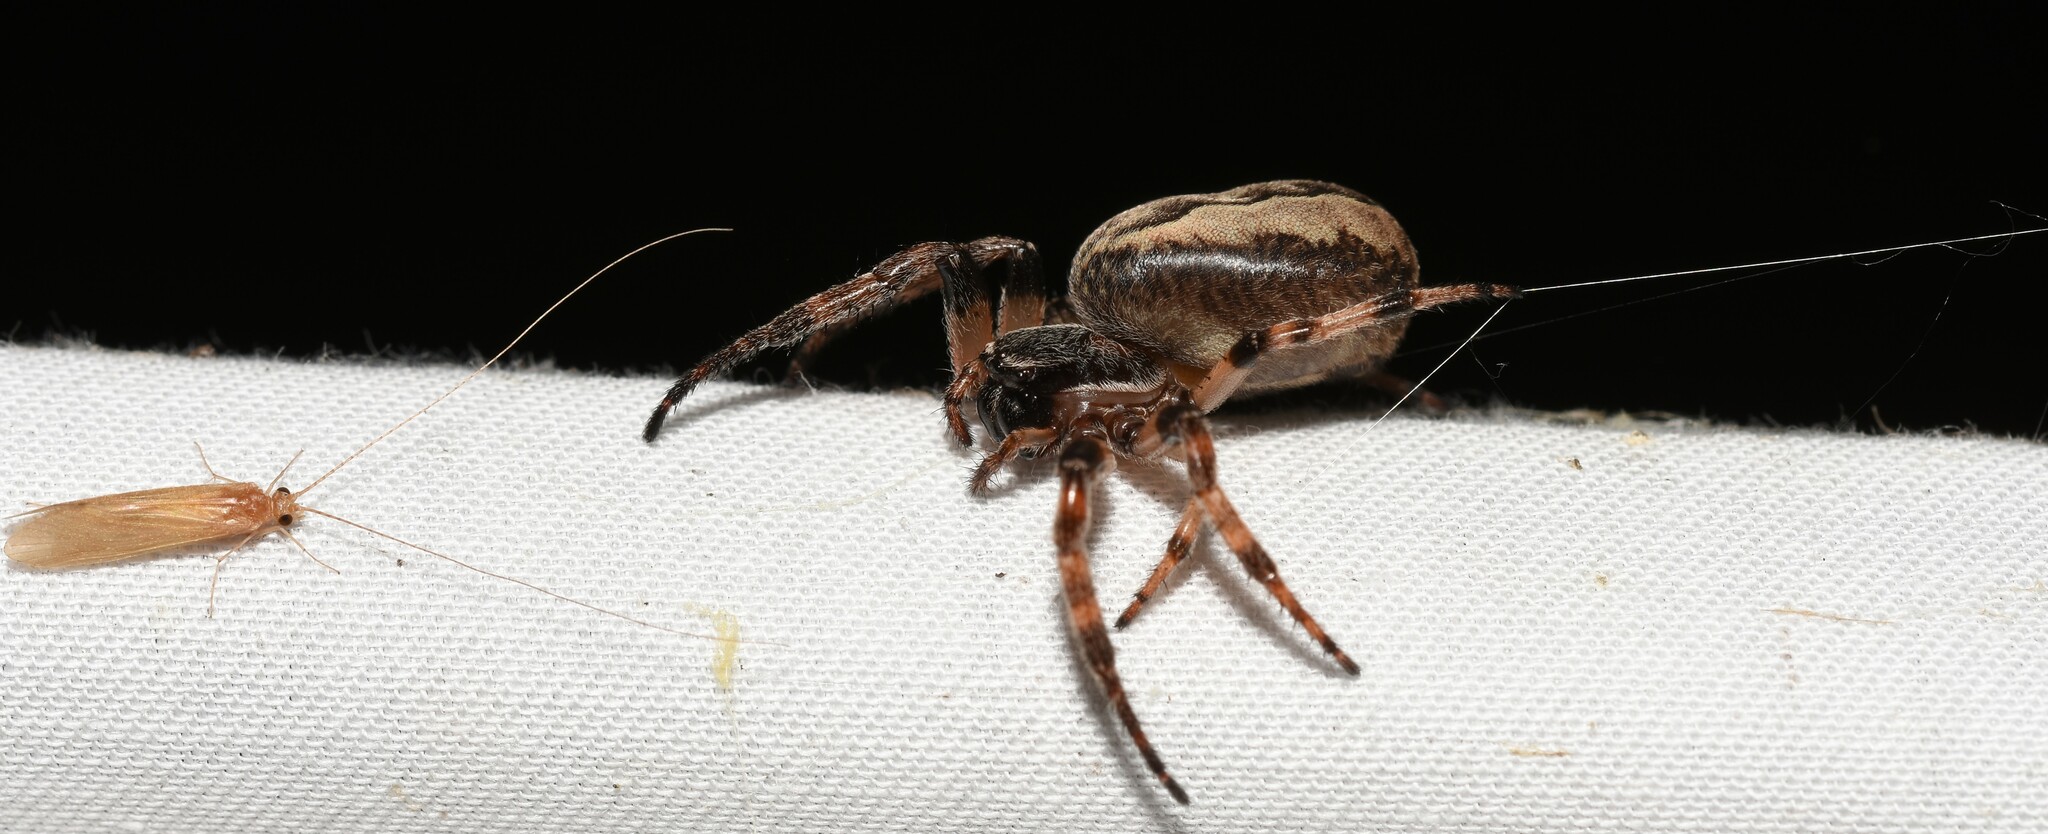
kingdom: Animalia
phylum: Arthropoda
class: Arachnida
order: Araneae
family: Araneidae
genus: Larinioides
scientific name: Larinioides cornutus
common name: Furrow orbweaver
